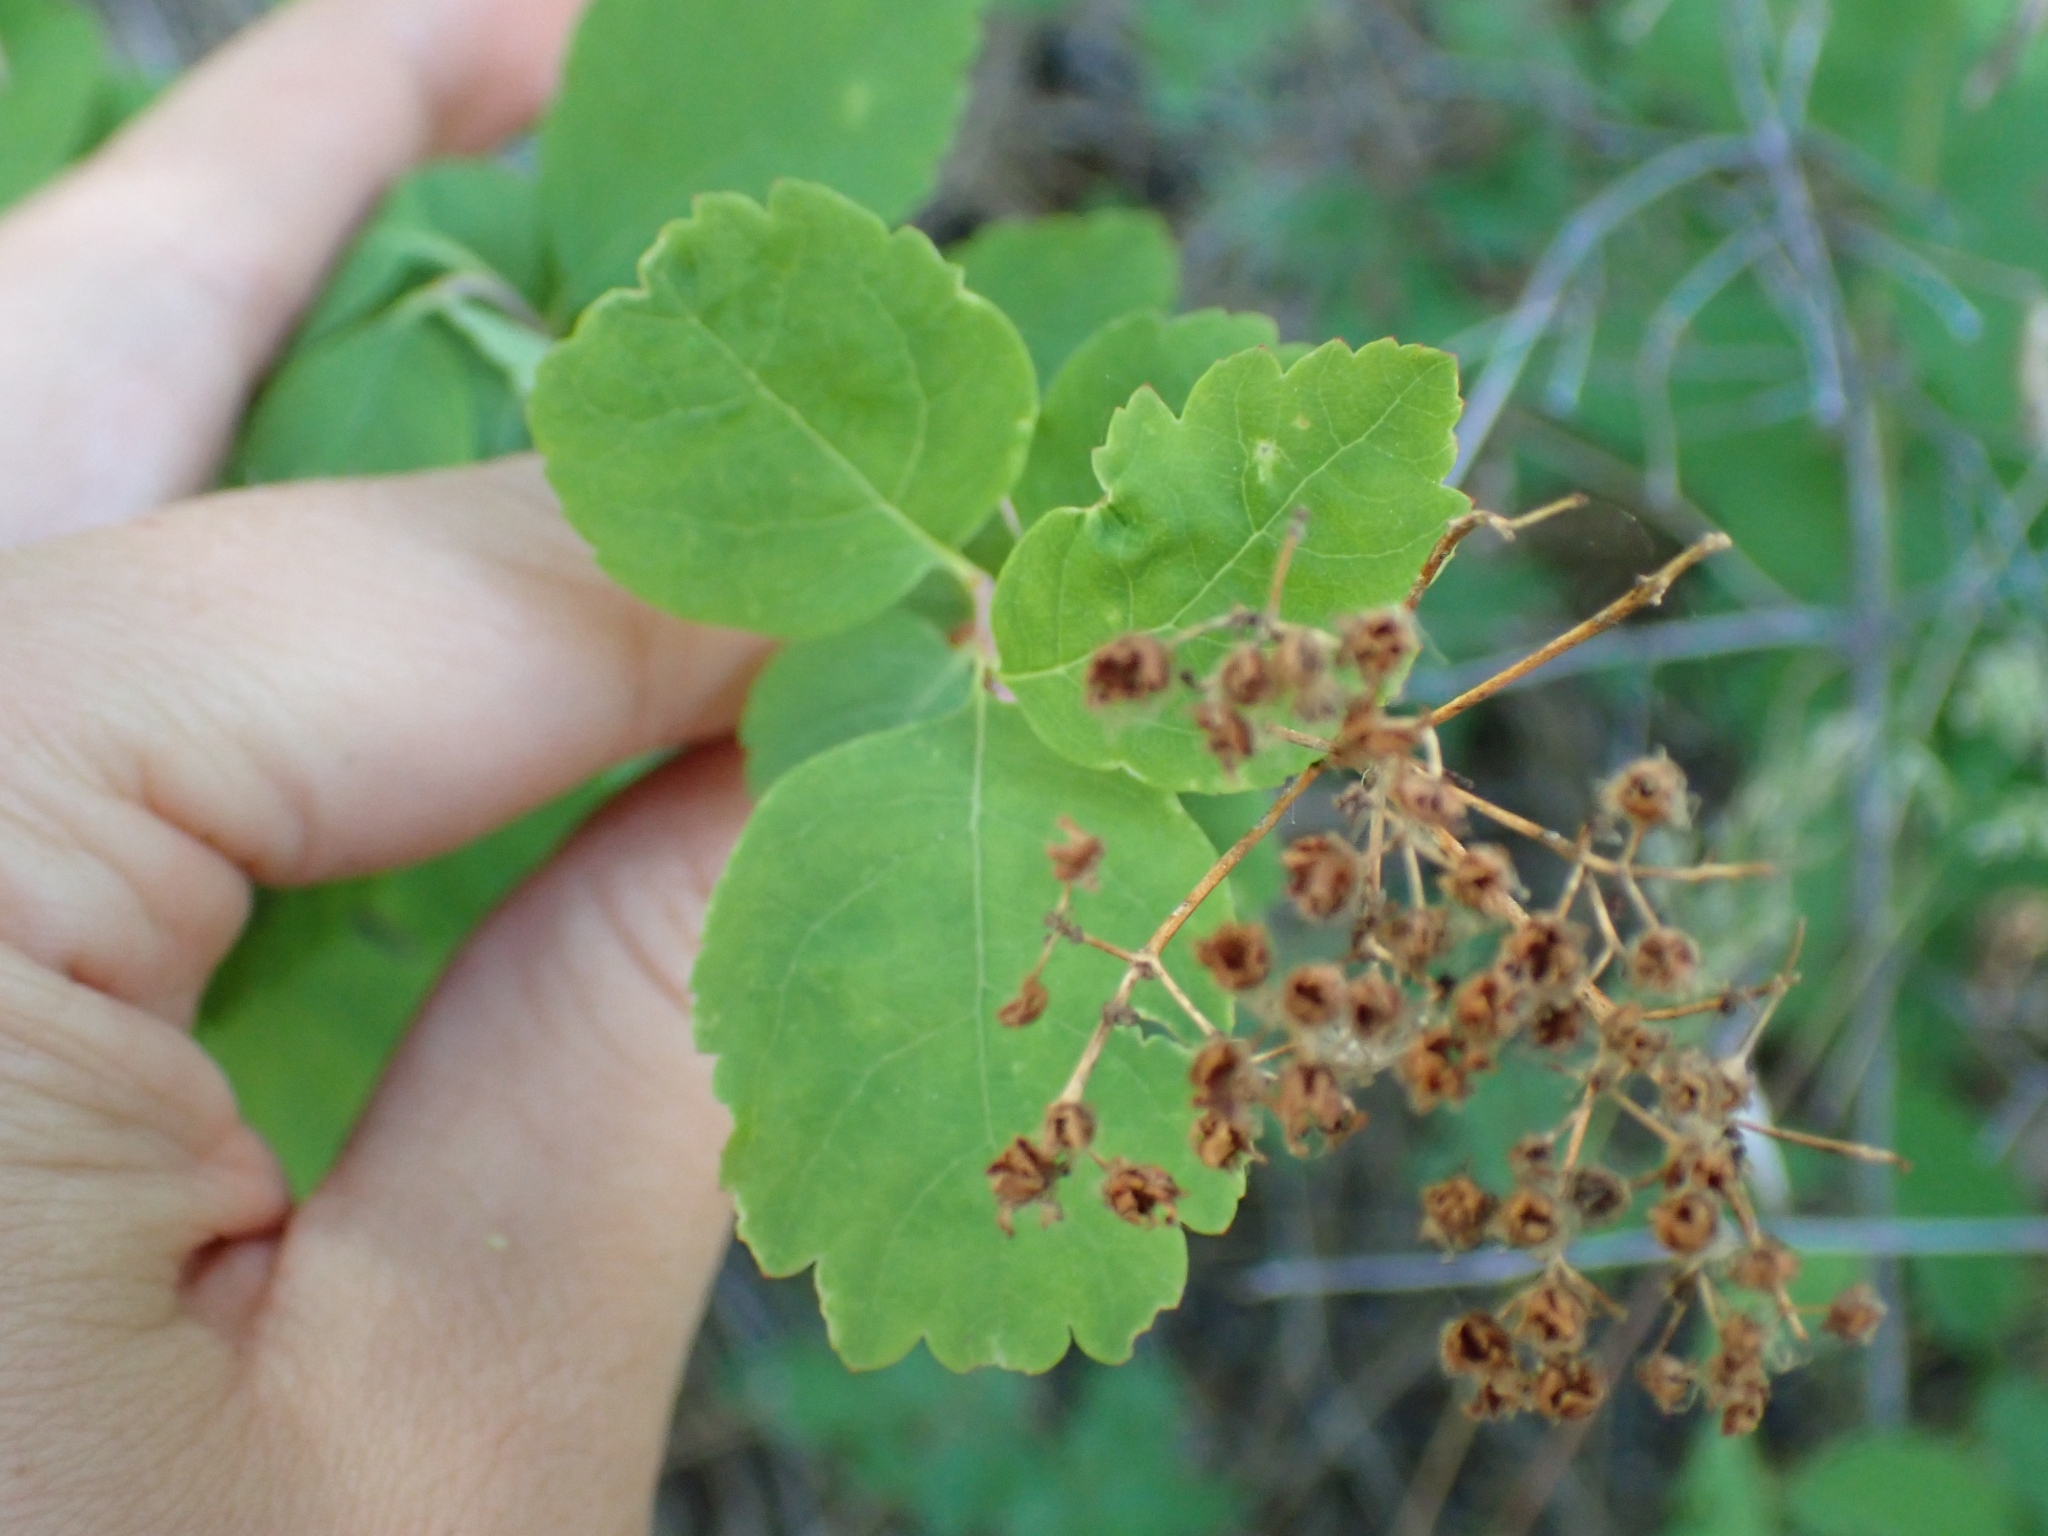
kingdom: Plantae
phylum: Tracheophyta
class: Magnoliopsida
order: Rosales
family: Rosaceae
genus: Spiraea
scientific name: Spiraea lucida
